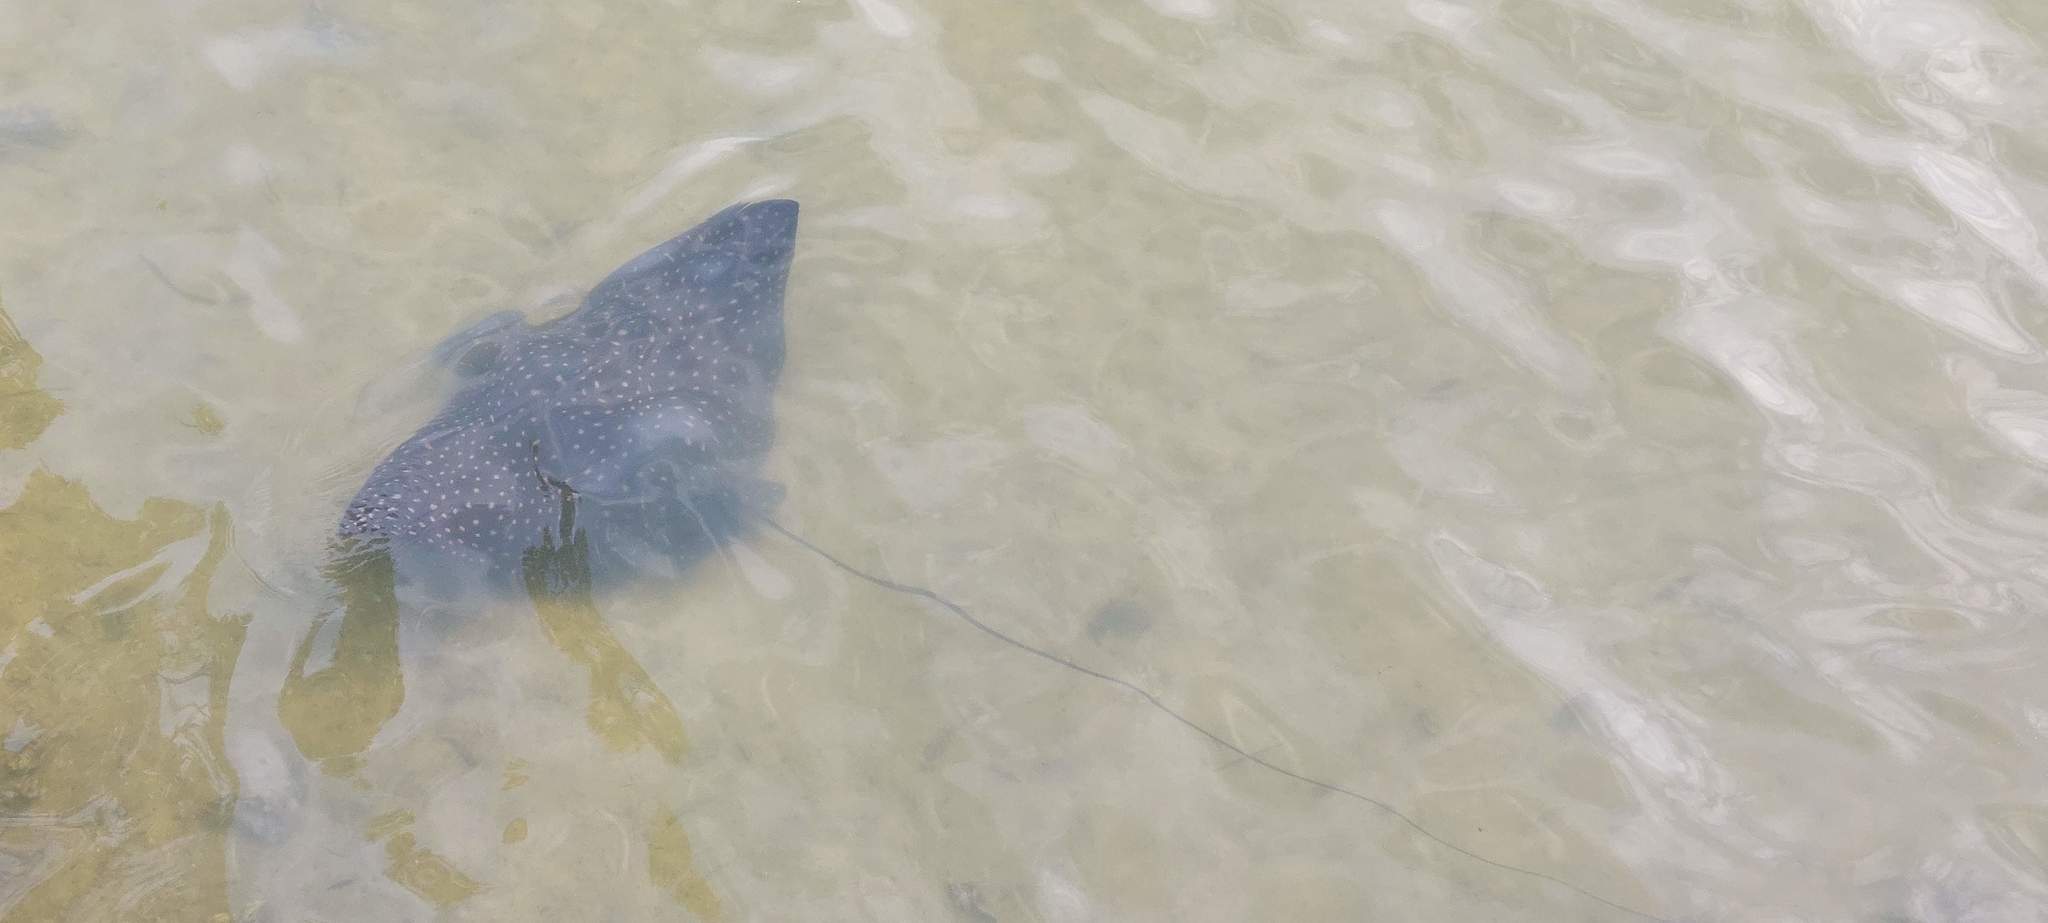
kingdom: Animalia
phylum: Chordata
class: Elasmobranchii
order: Myliobatiformes
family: Myliobatidae
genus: Aetobatus
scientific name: Aetobatus narinari
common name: Spotted eagle ray
